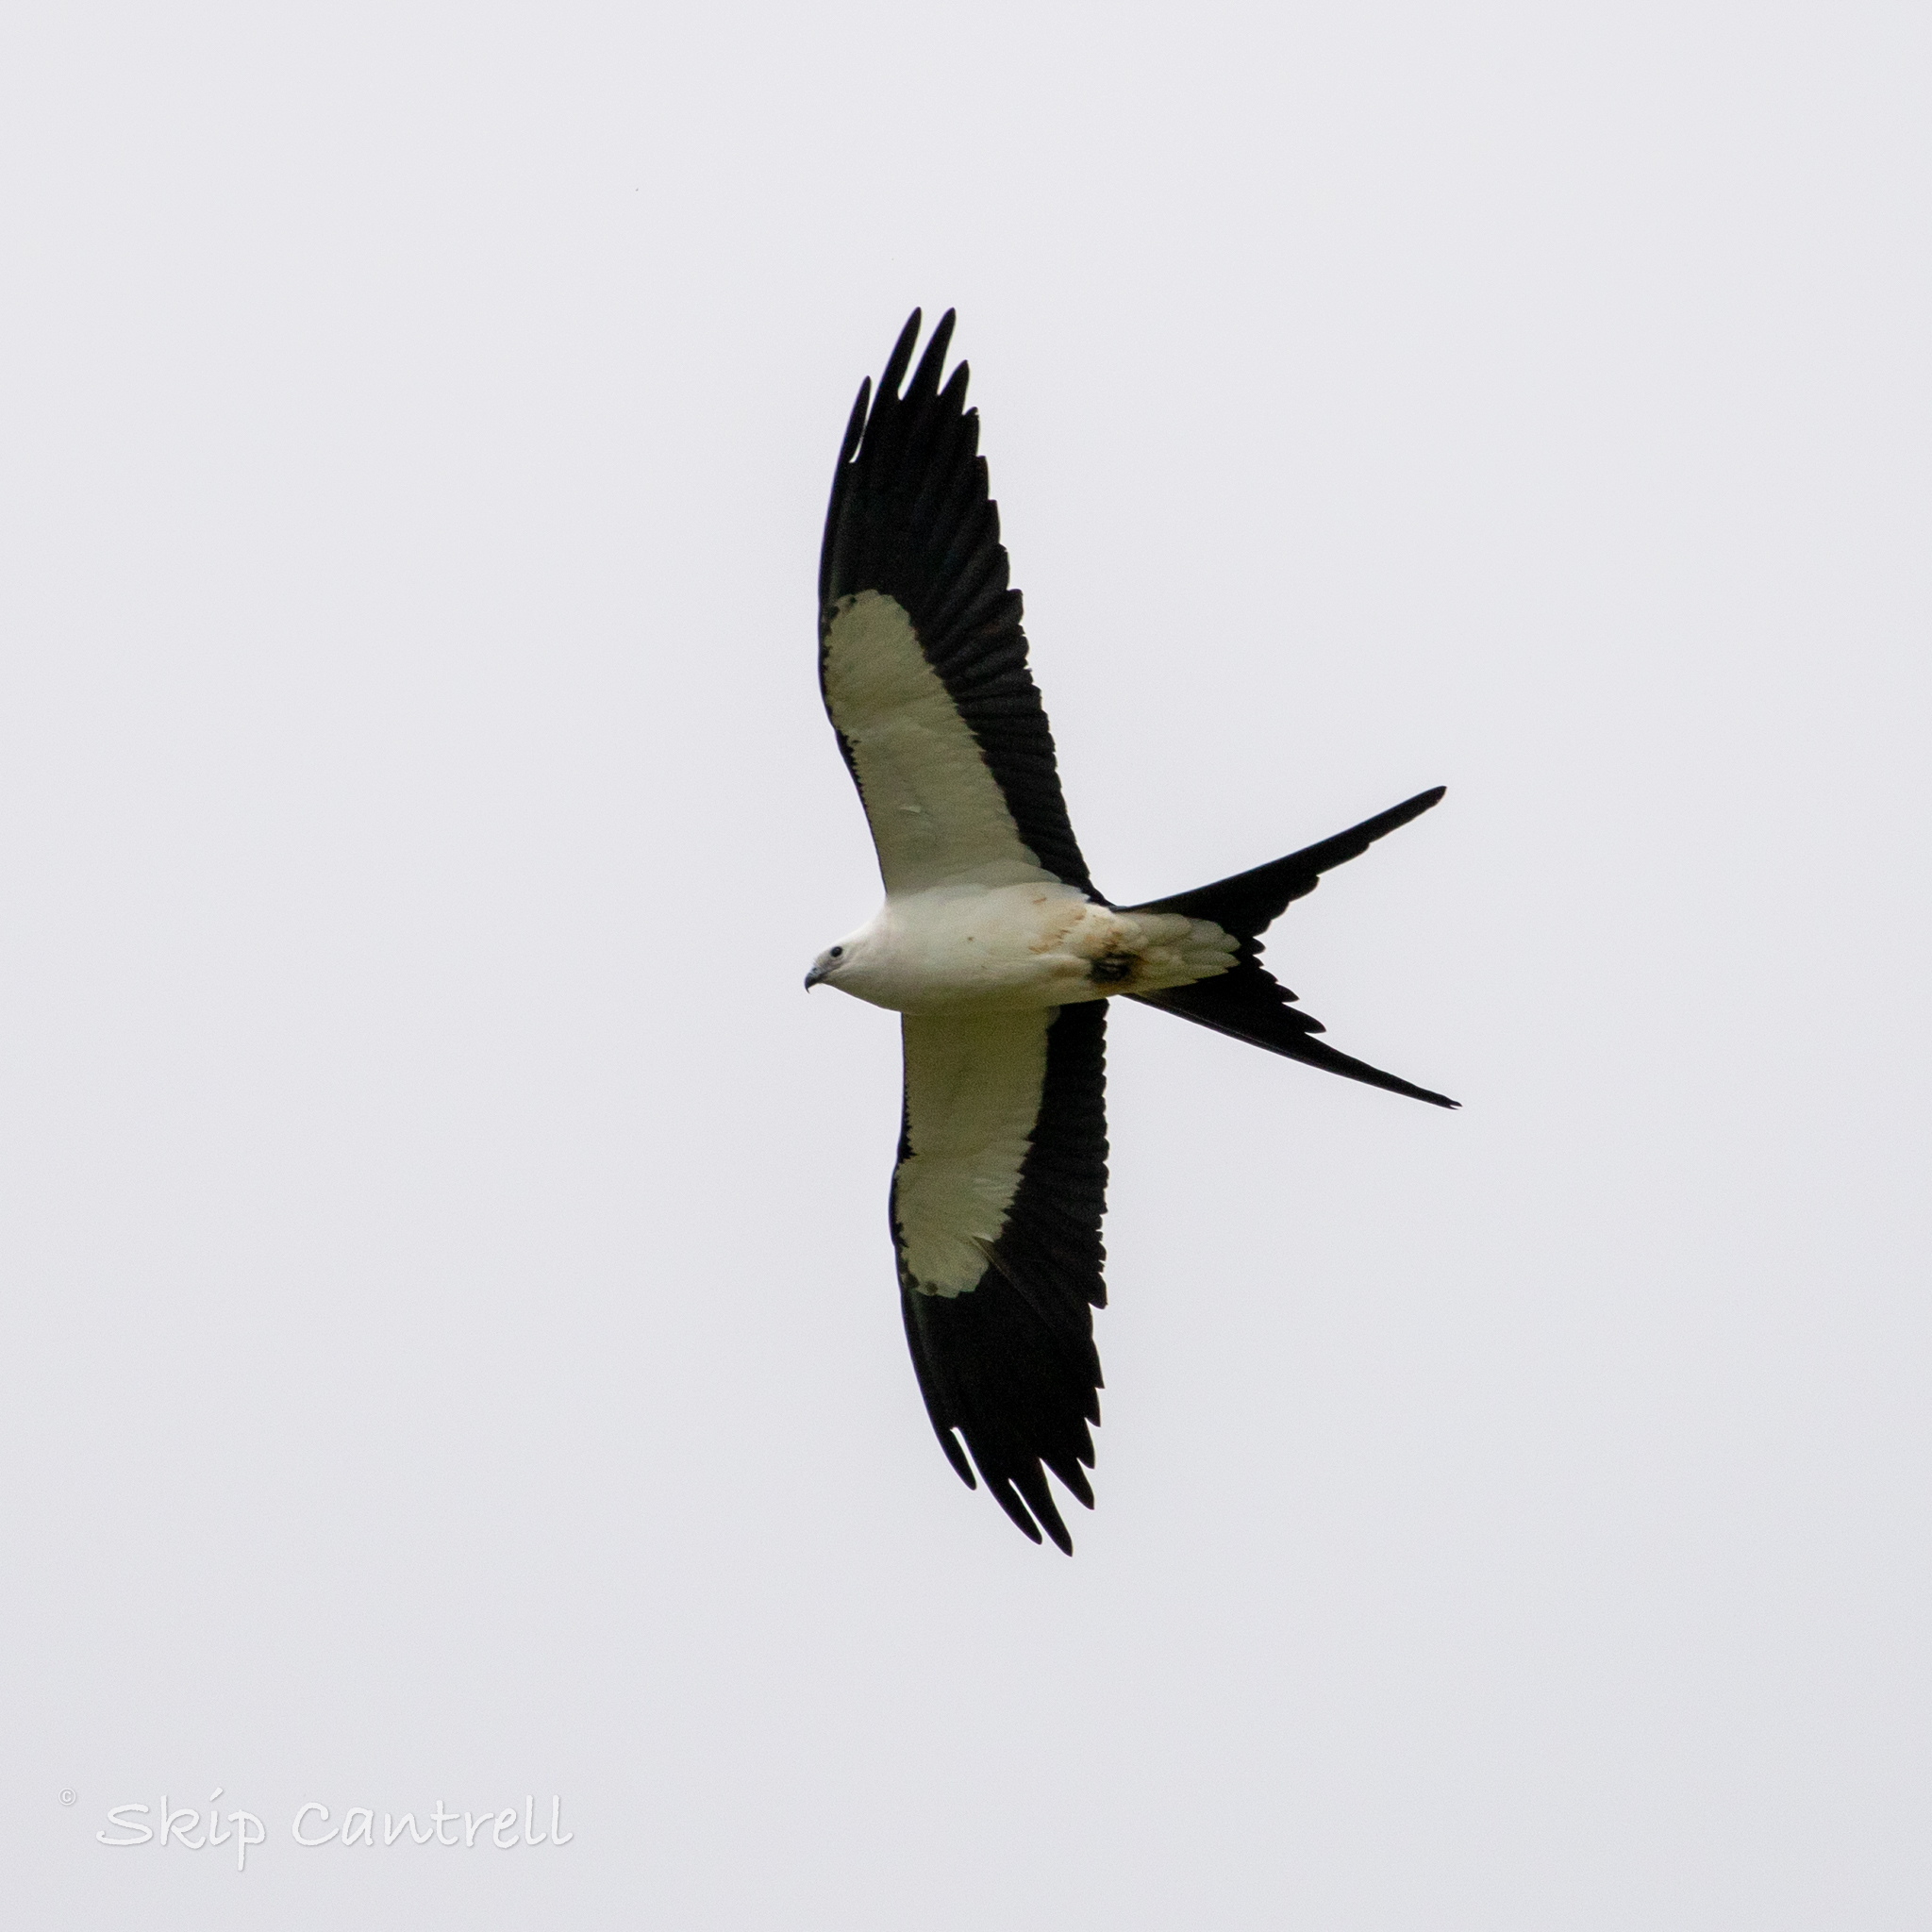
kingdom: Animalia
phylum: Chordata
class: Aves
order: Accipitriformes
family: Accipitridae
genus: Elanoides
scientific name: Elanoides forficatus
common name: Swallow-tailed kite
